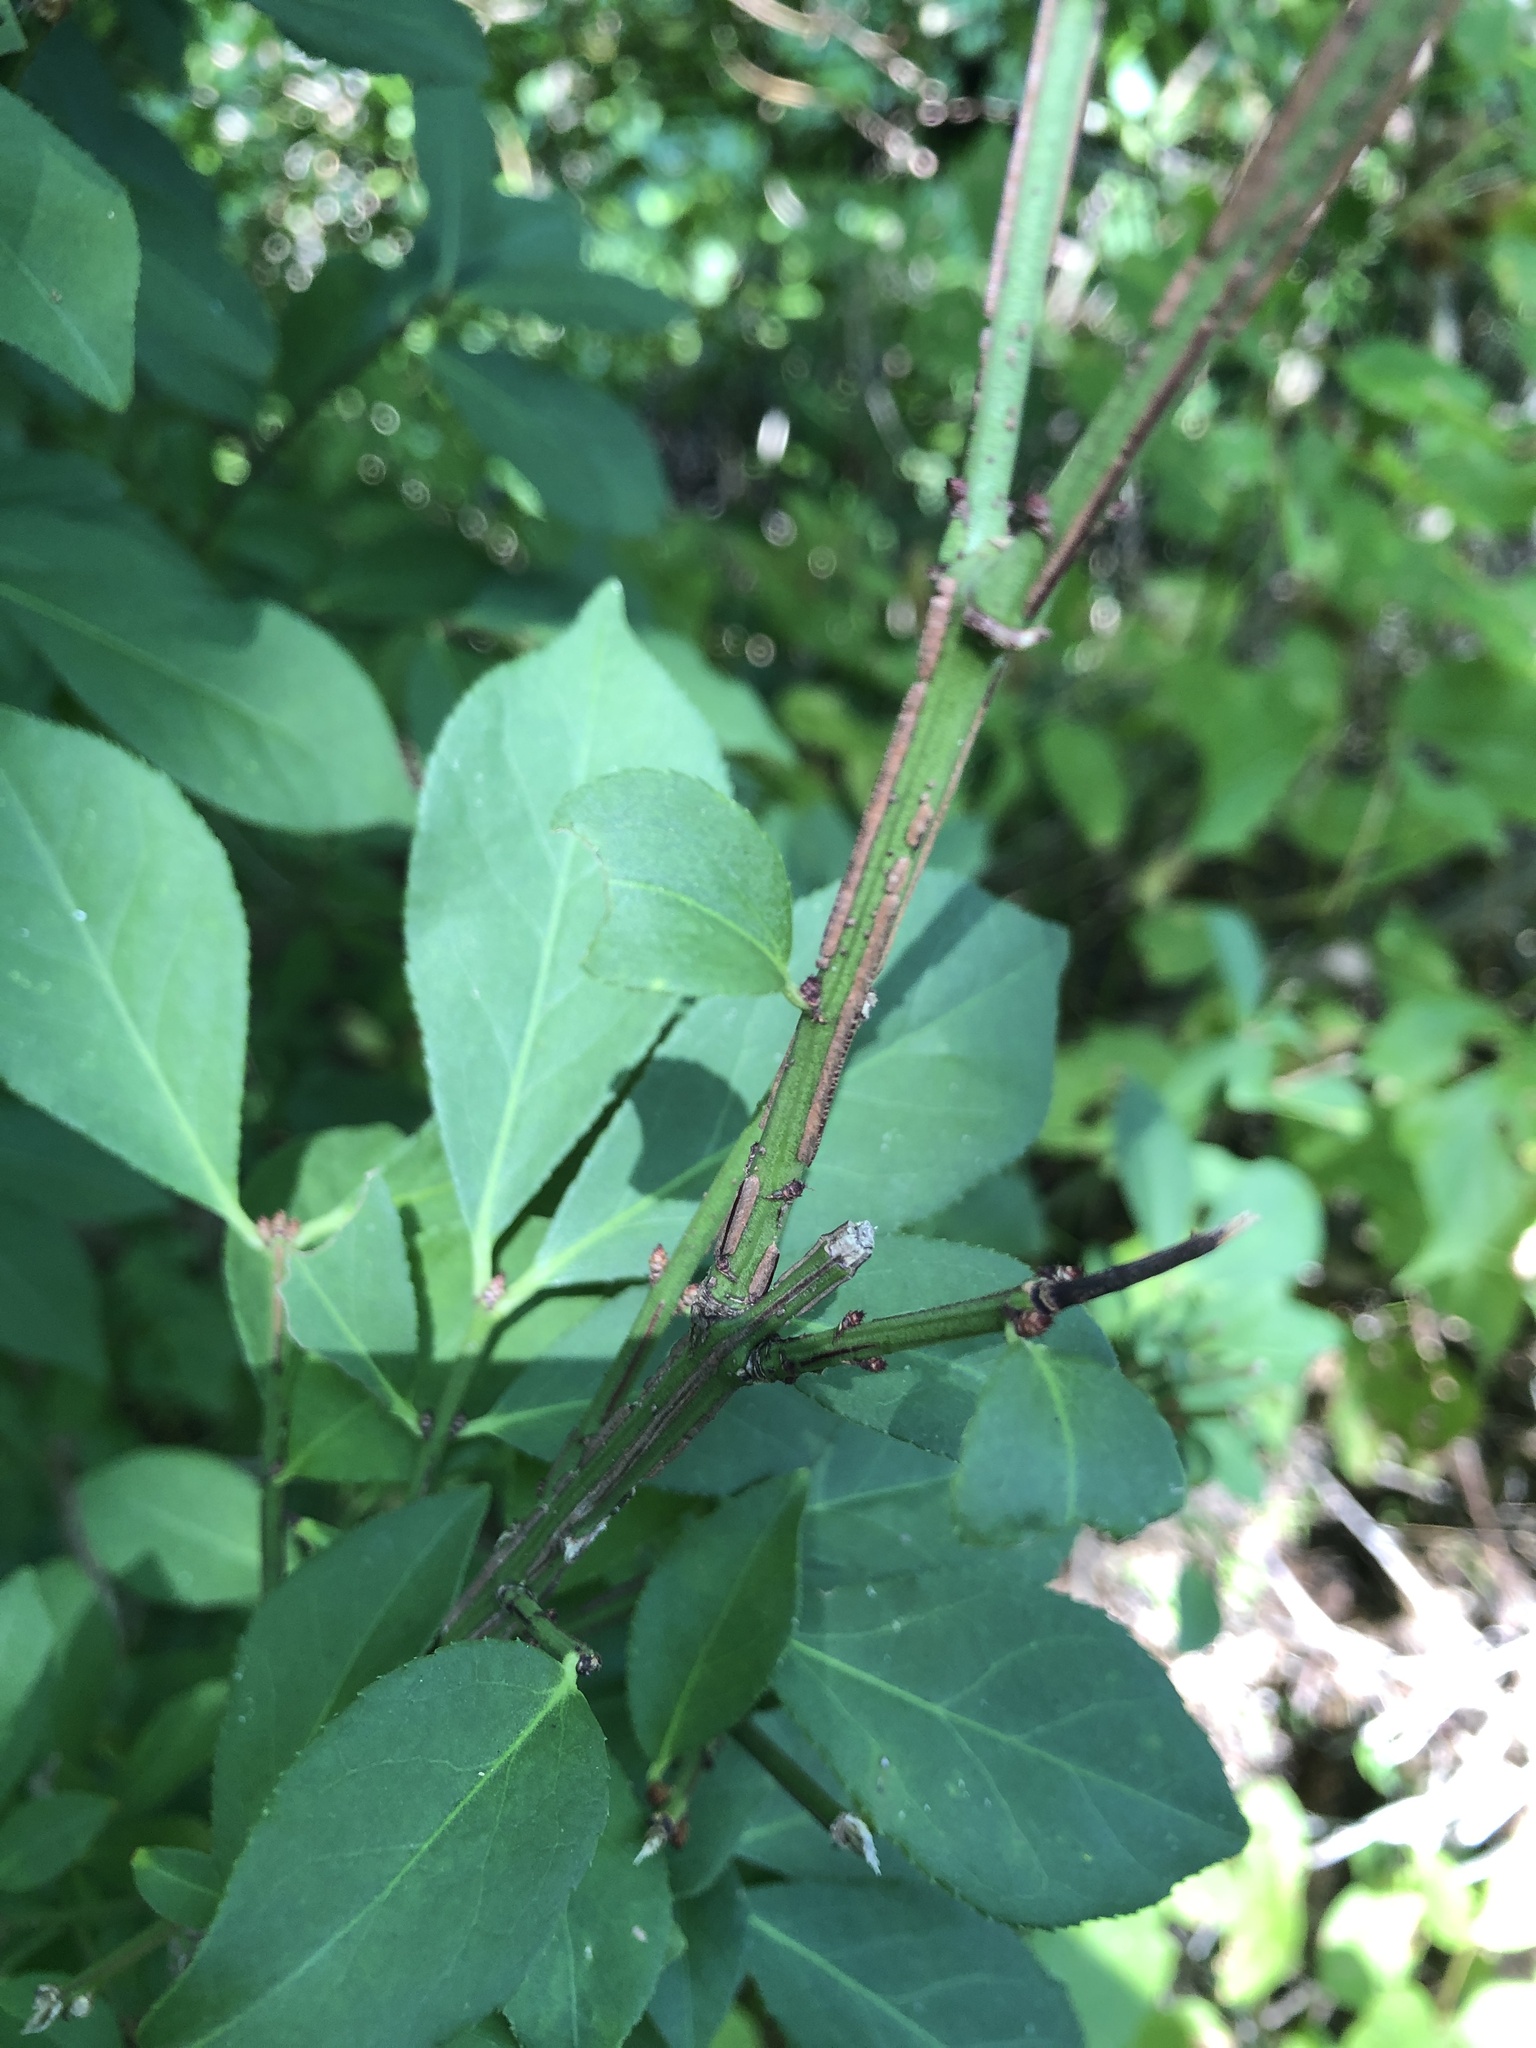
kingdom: Plantae
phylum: Tracheophyta
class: Magnoliopsida
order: Celastrales
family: Celastraceae
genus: Euonymus
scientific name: Euonymus alatus
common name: Winged euonymus
